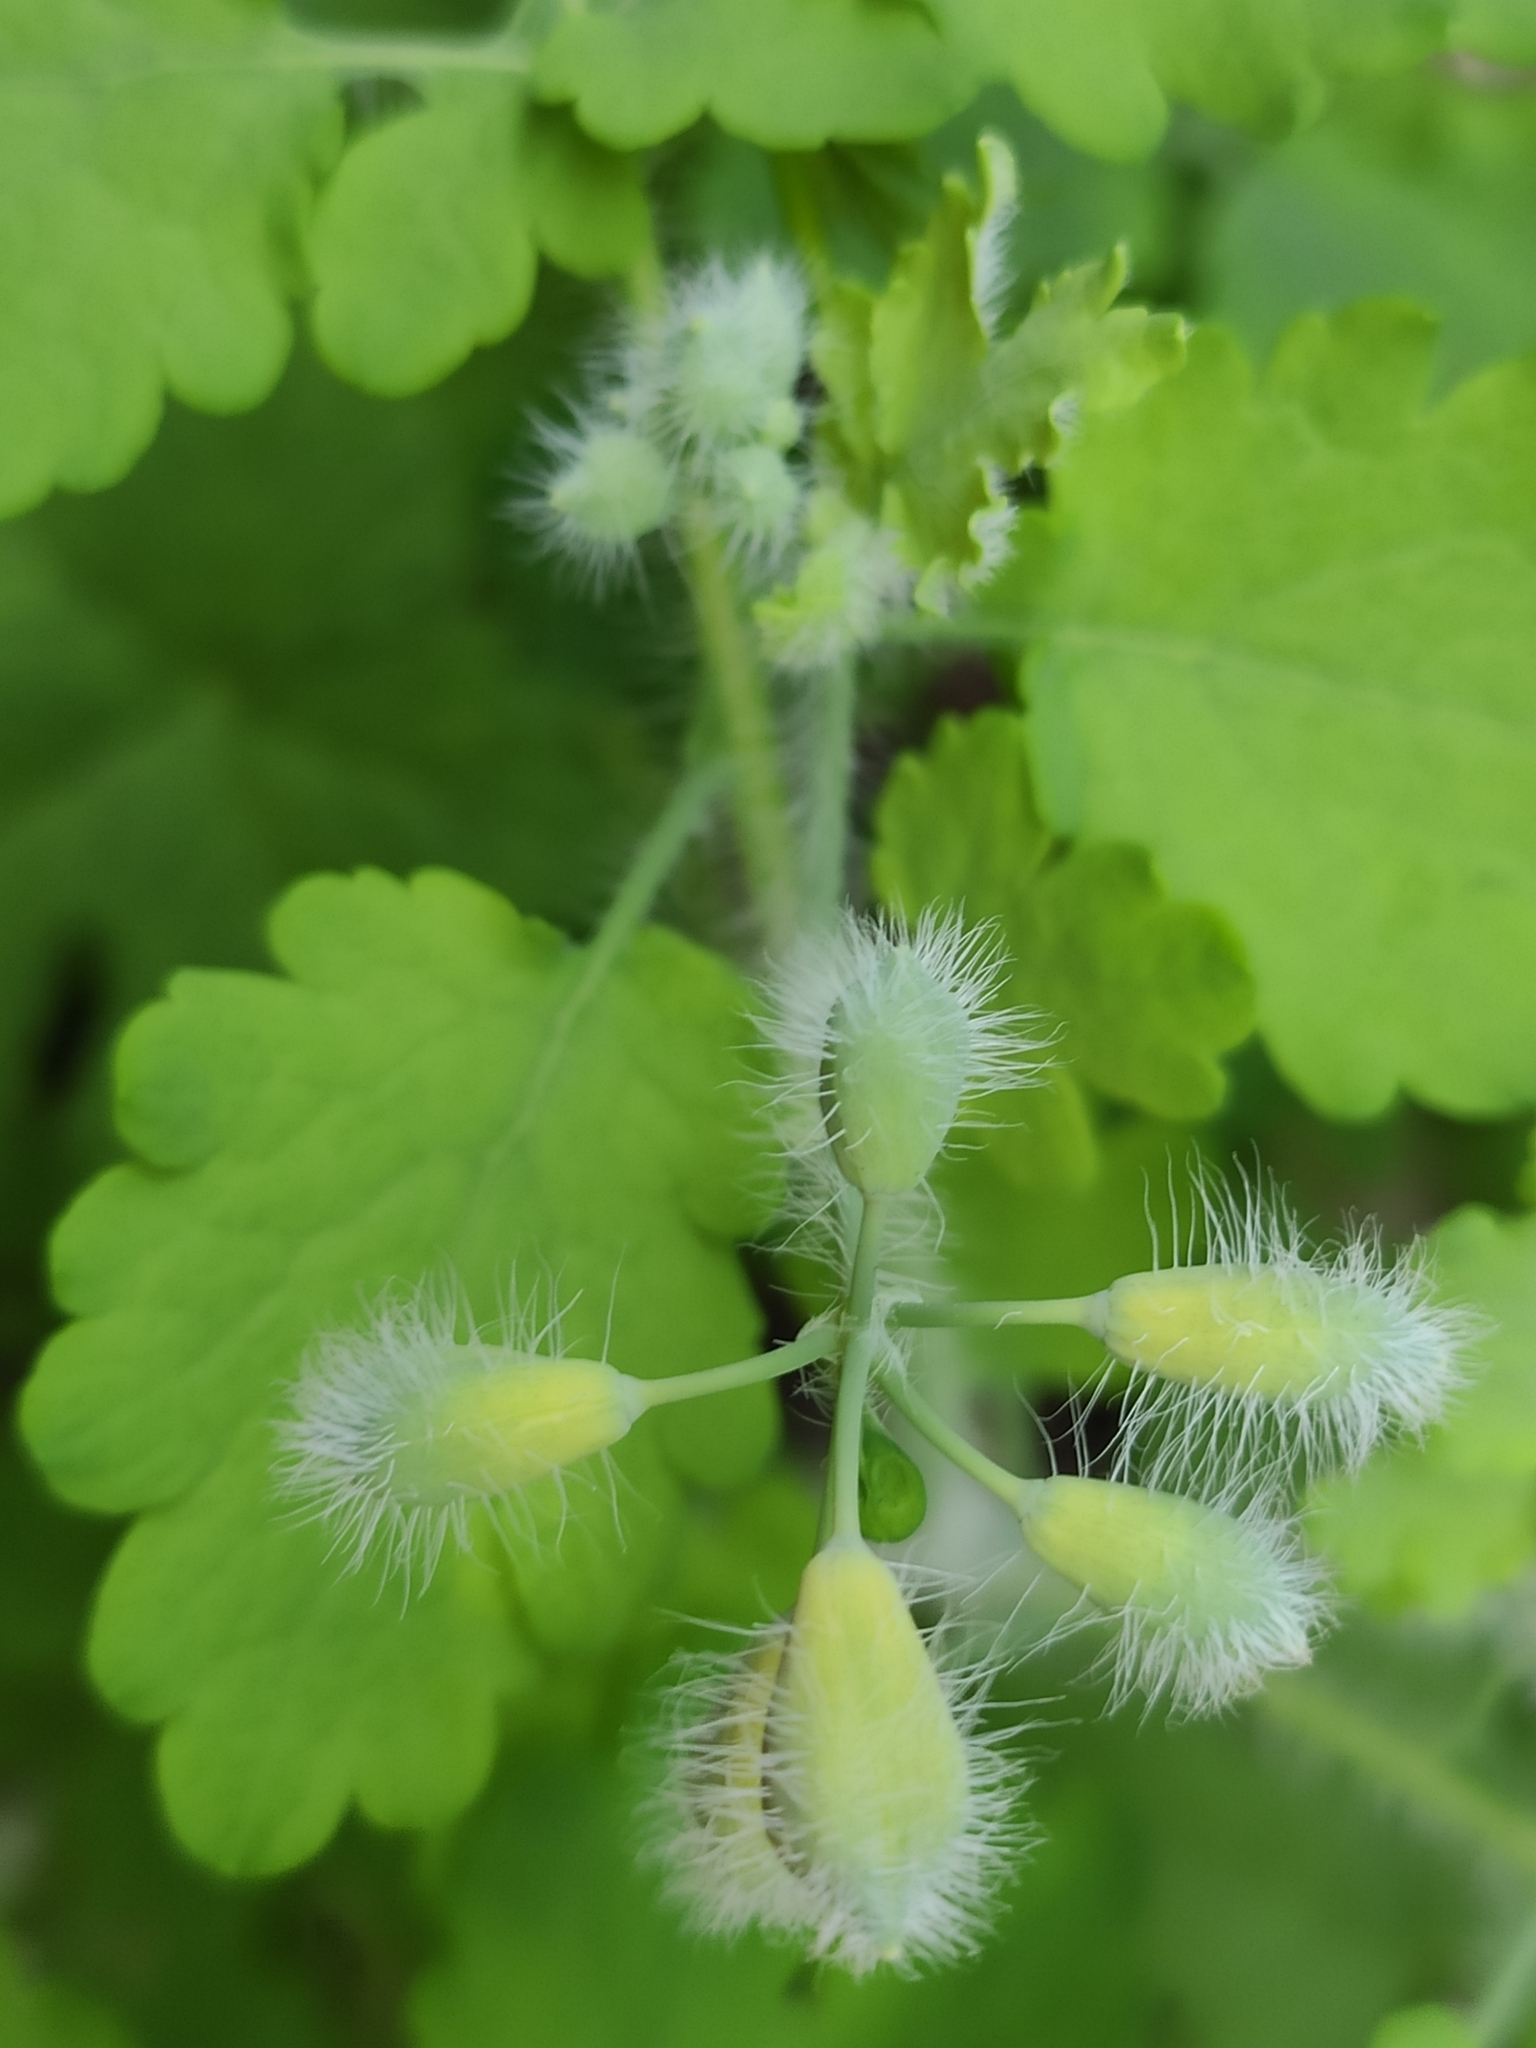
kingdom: Plantae
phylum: Tracheophyta
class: Magnoliopsida
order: Ranunculales
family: Papaveraceae
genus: Chelidonium
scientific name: Chelidonium majus
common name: Greater celandine
